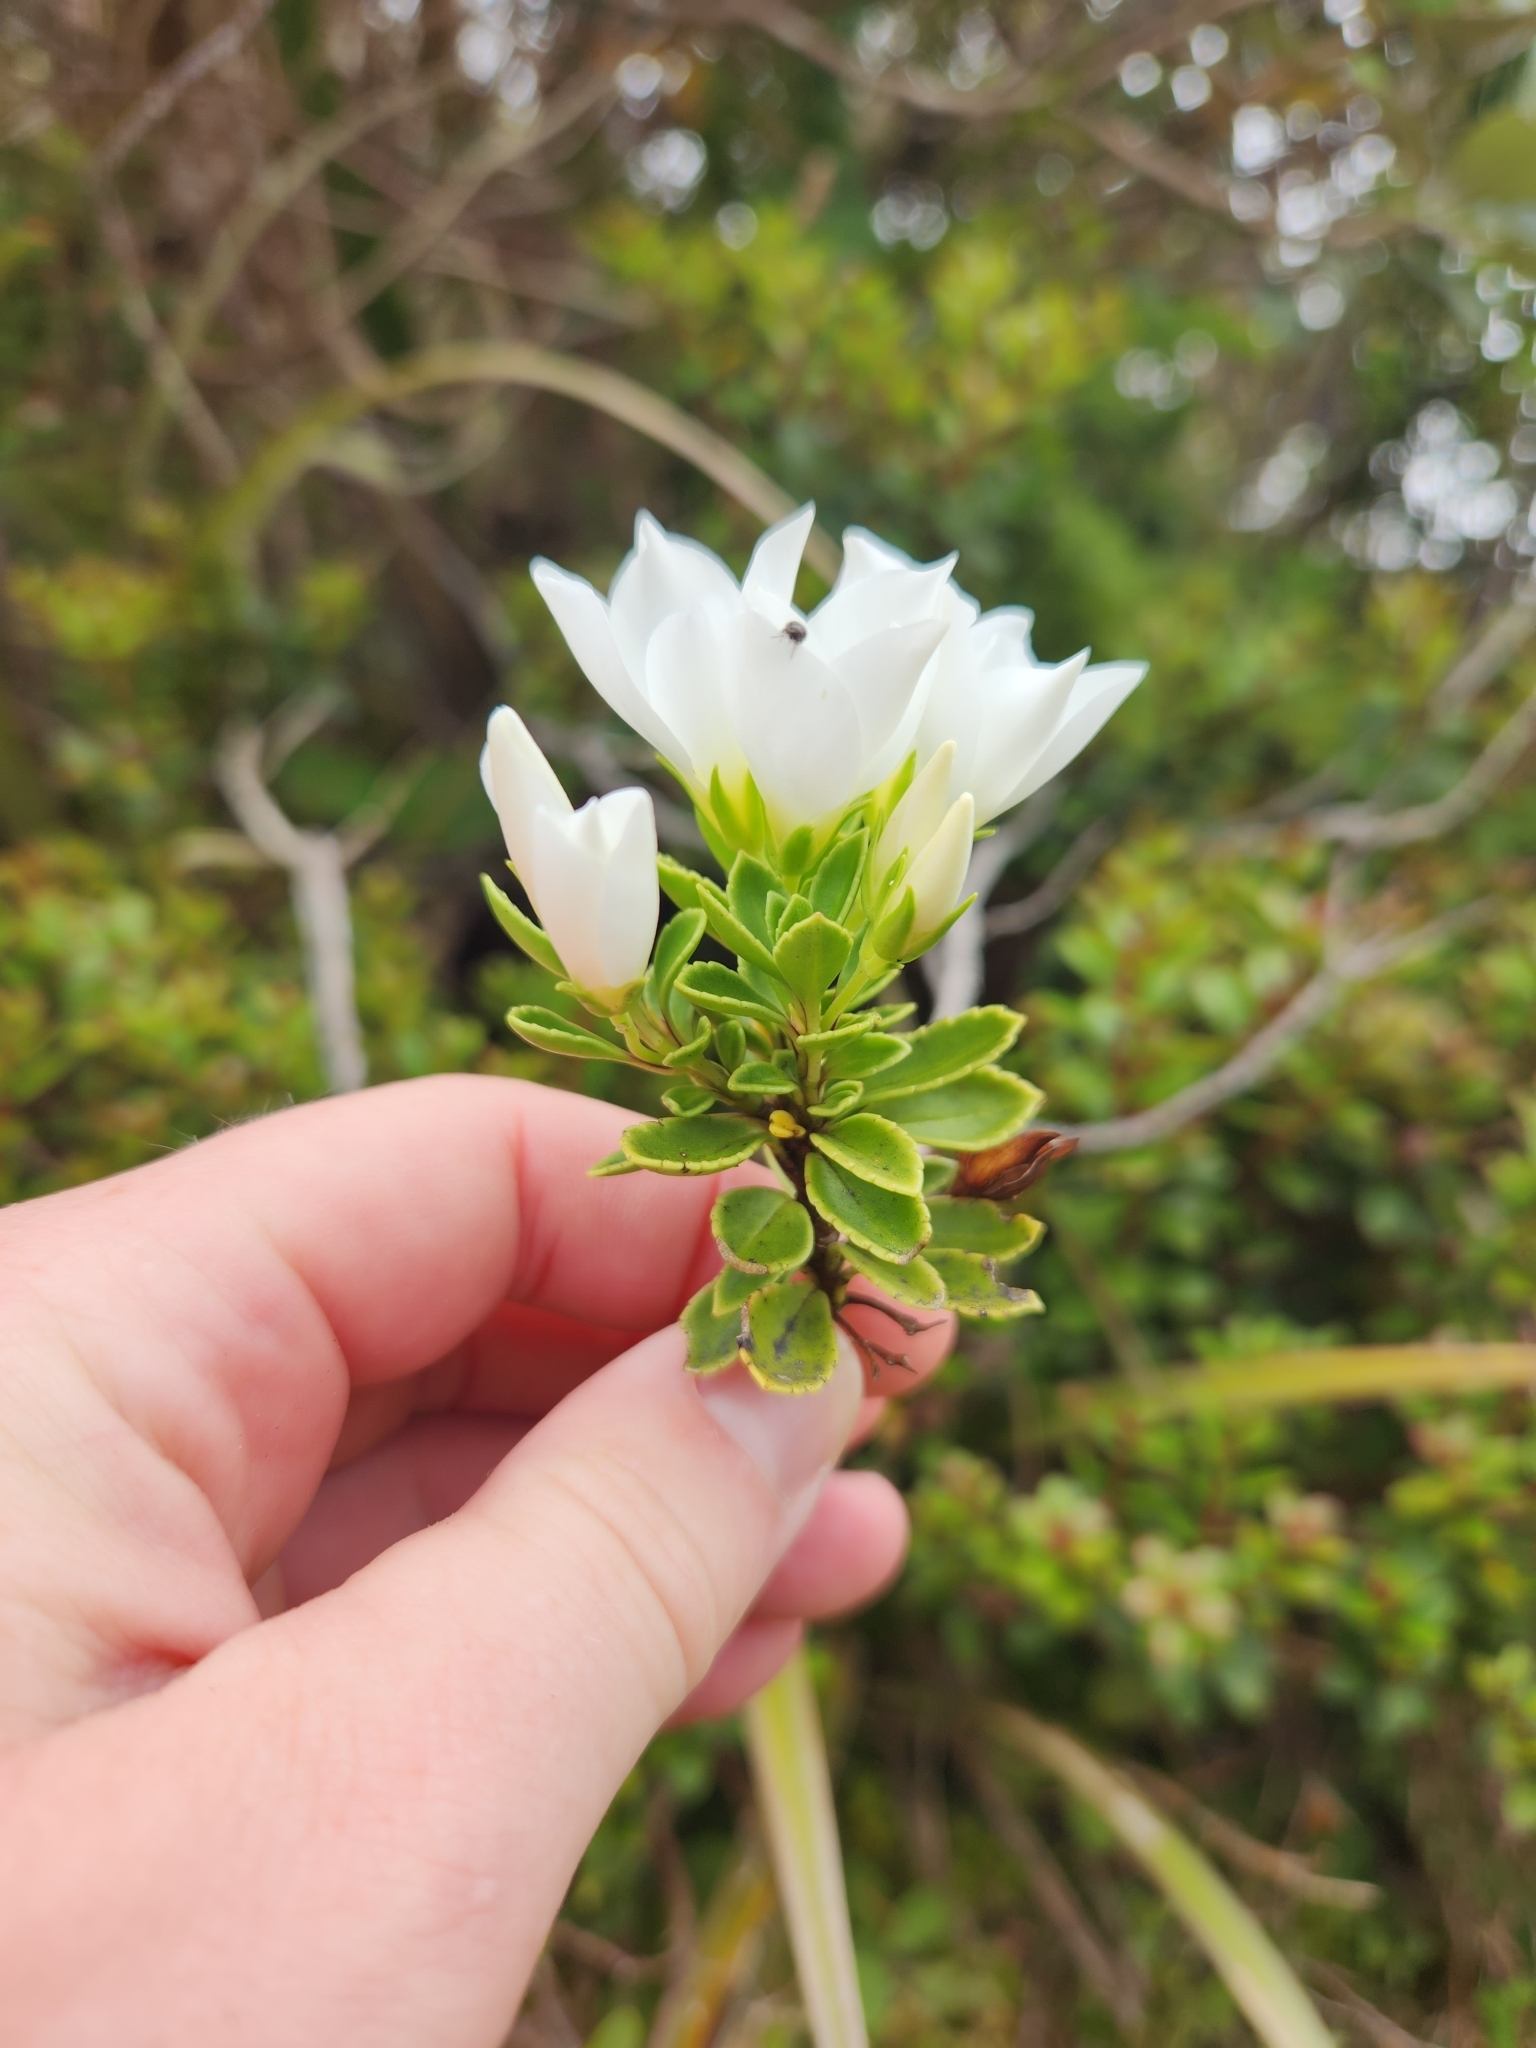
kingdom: Plantae
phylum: Tracheophyta
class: Magnoliopsida
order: Lamiales
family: Plantaginaceae
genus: Veronica
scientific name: Veronica macrantha
